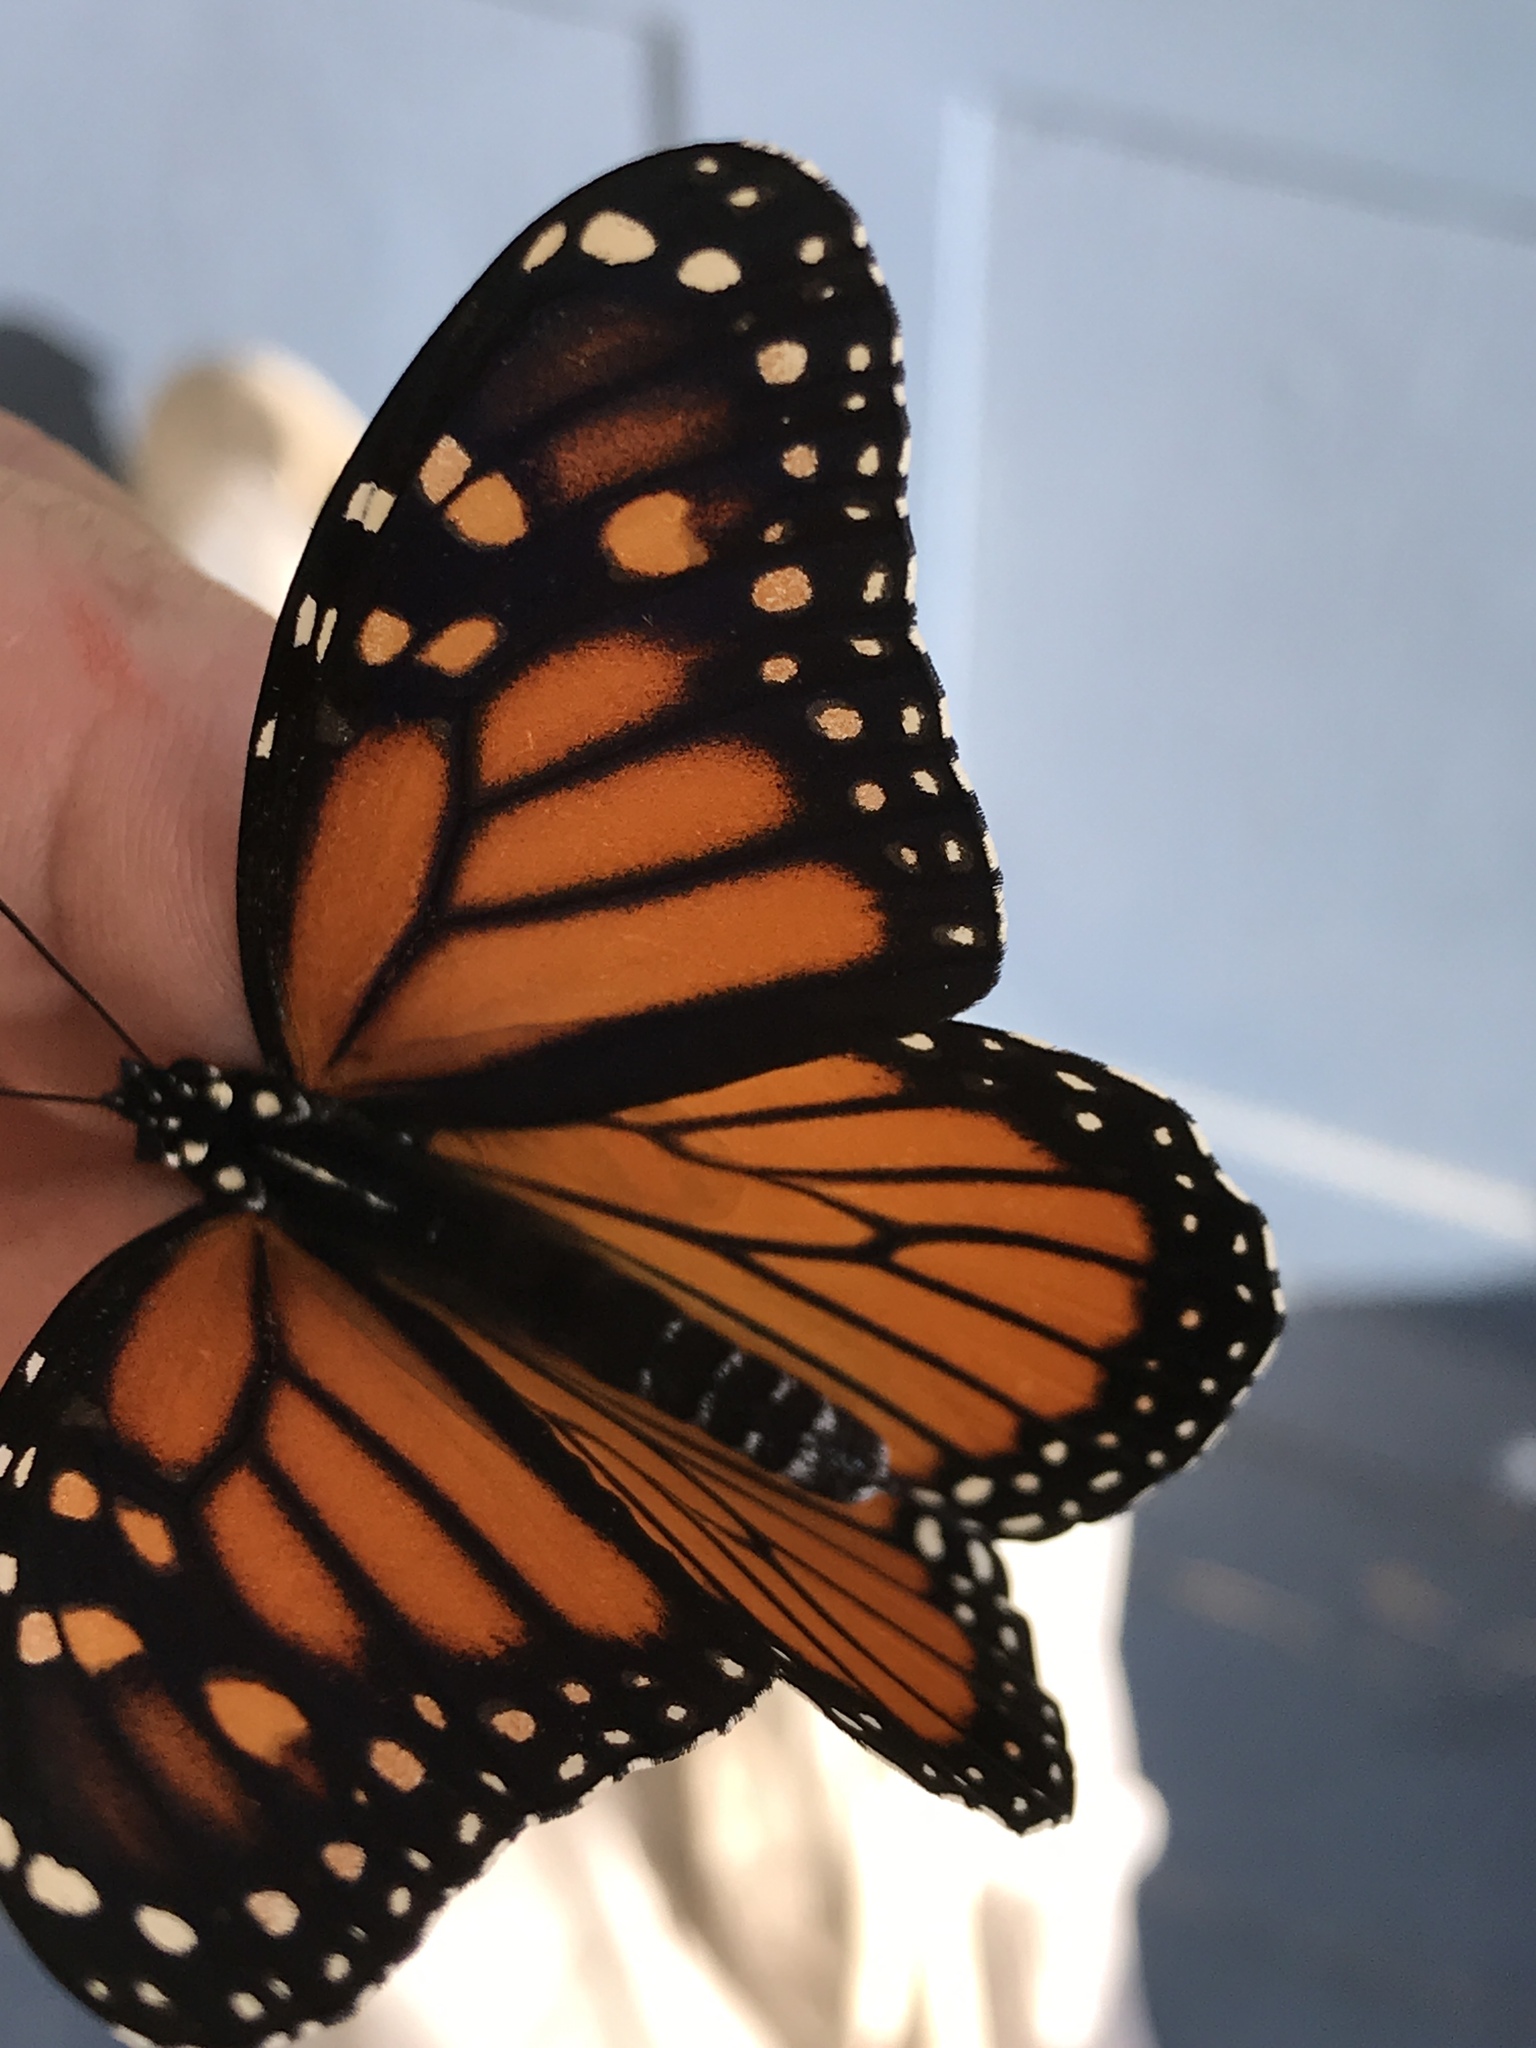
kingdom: Animalia
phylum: Arthropoda
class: Insecta
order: Lepidoptera
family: Nymphalidae
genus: Danaus
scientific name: Danaus plexippus
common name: Monarch
